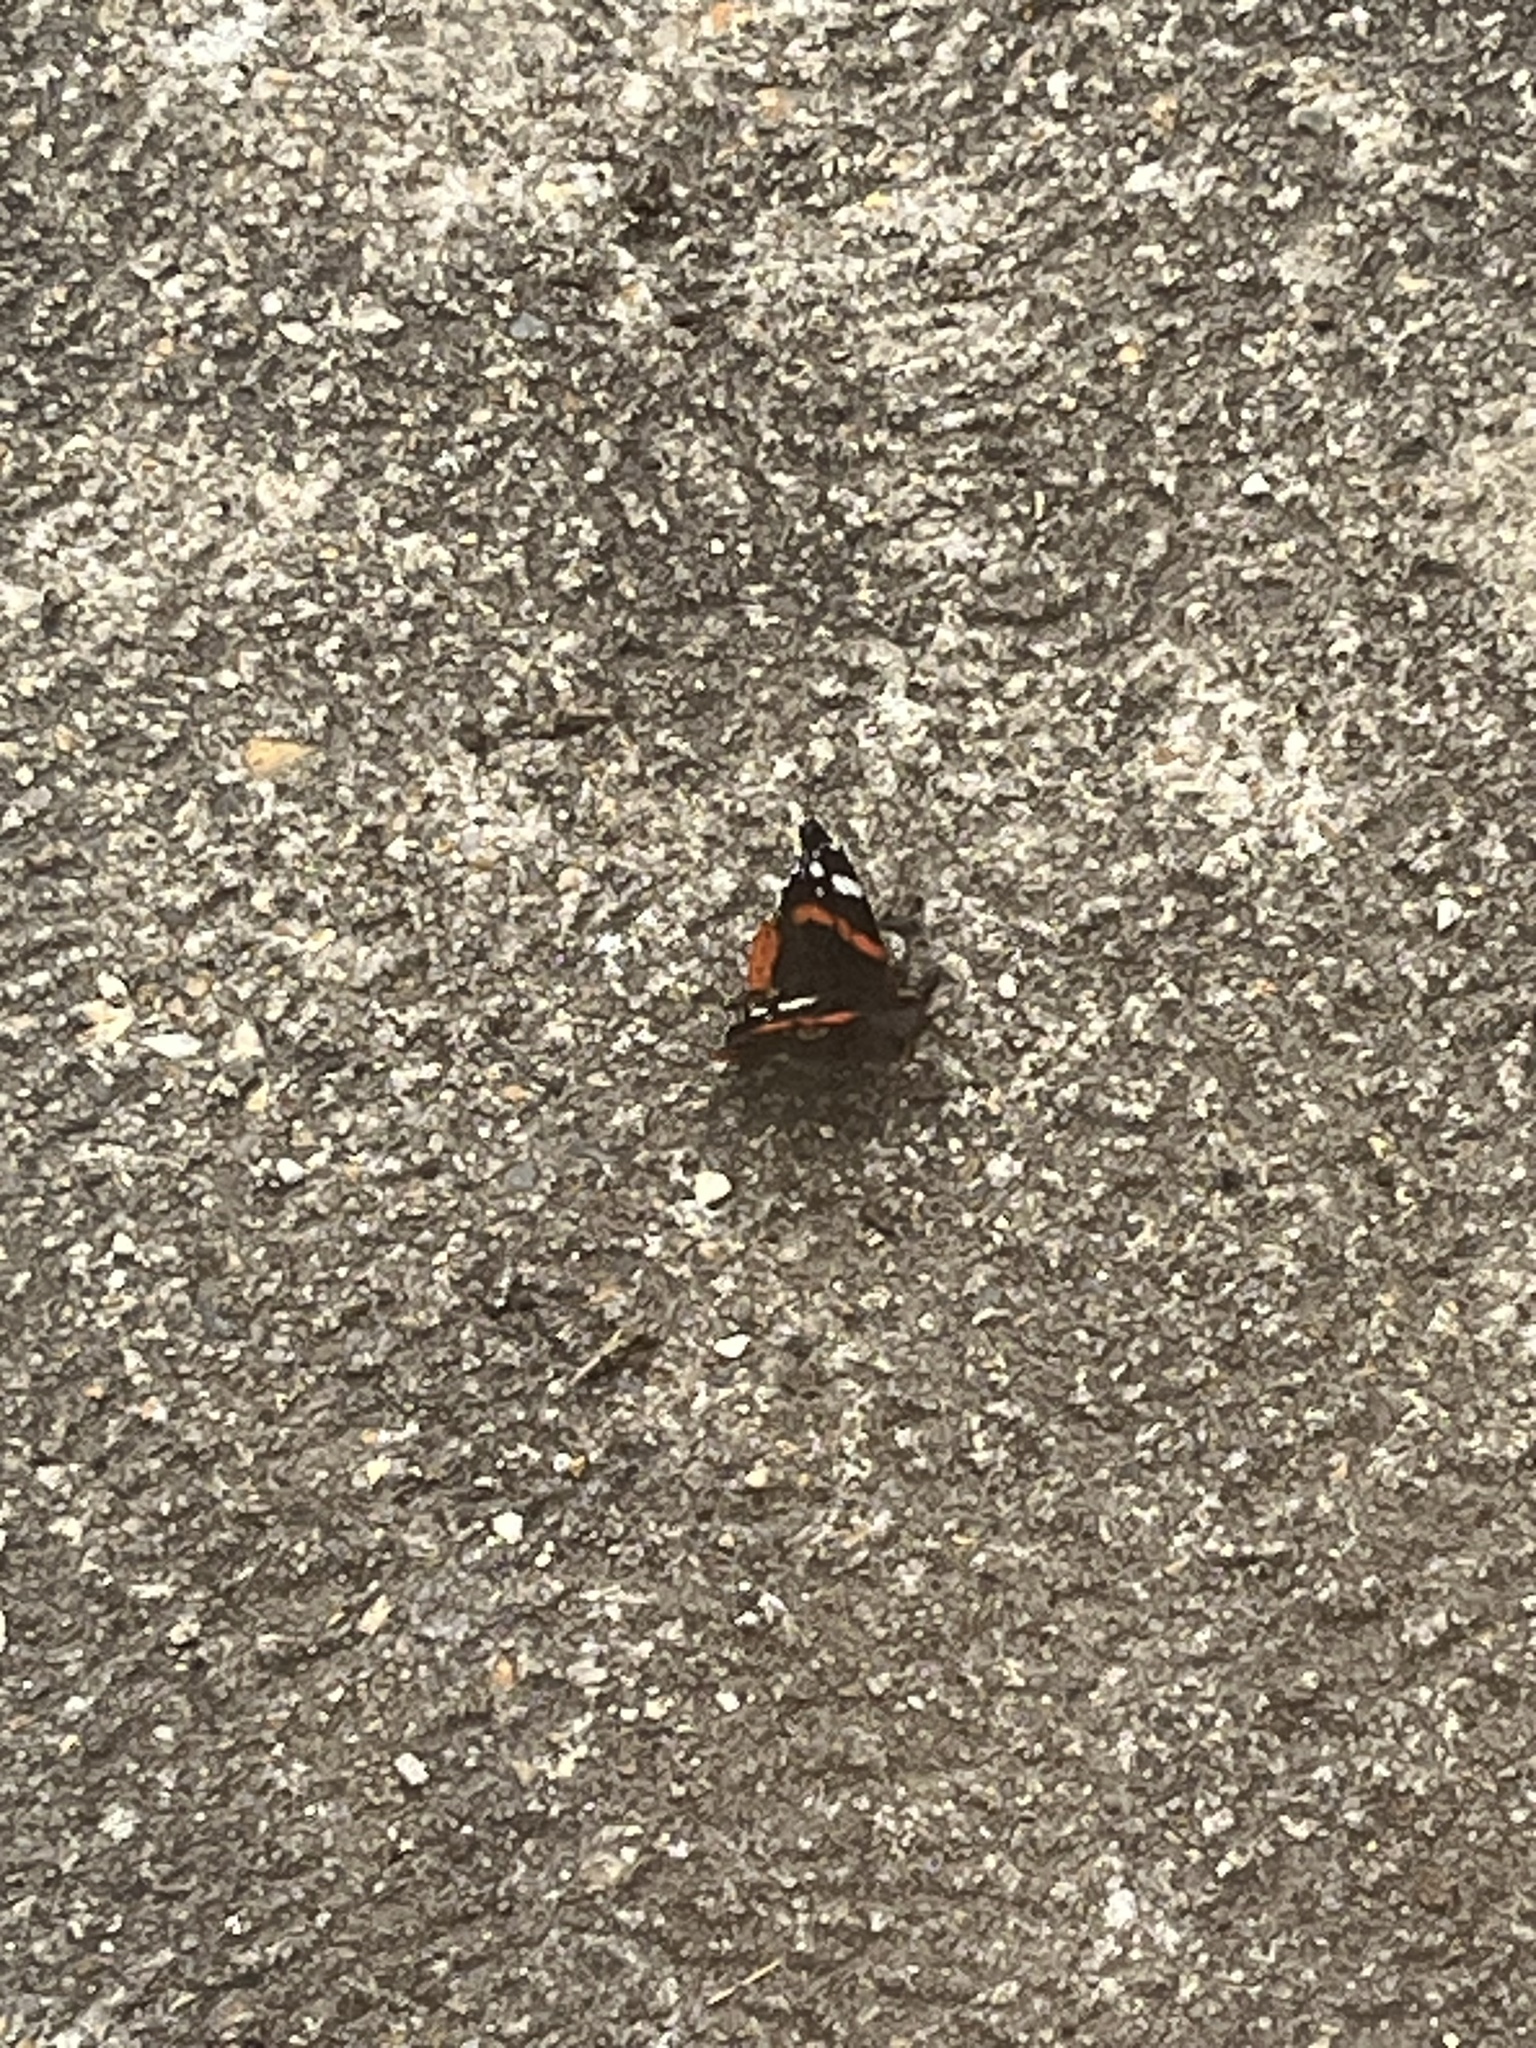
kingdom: Animalia
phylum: Arthropoda
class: Insecta
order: Lepidoptera
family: Nymphalidae
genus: Vanessa
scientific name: Vanessa atalanta
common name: Red admiral
